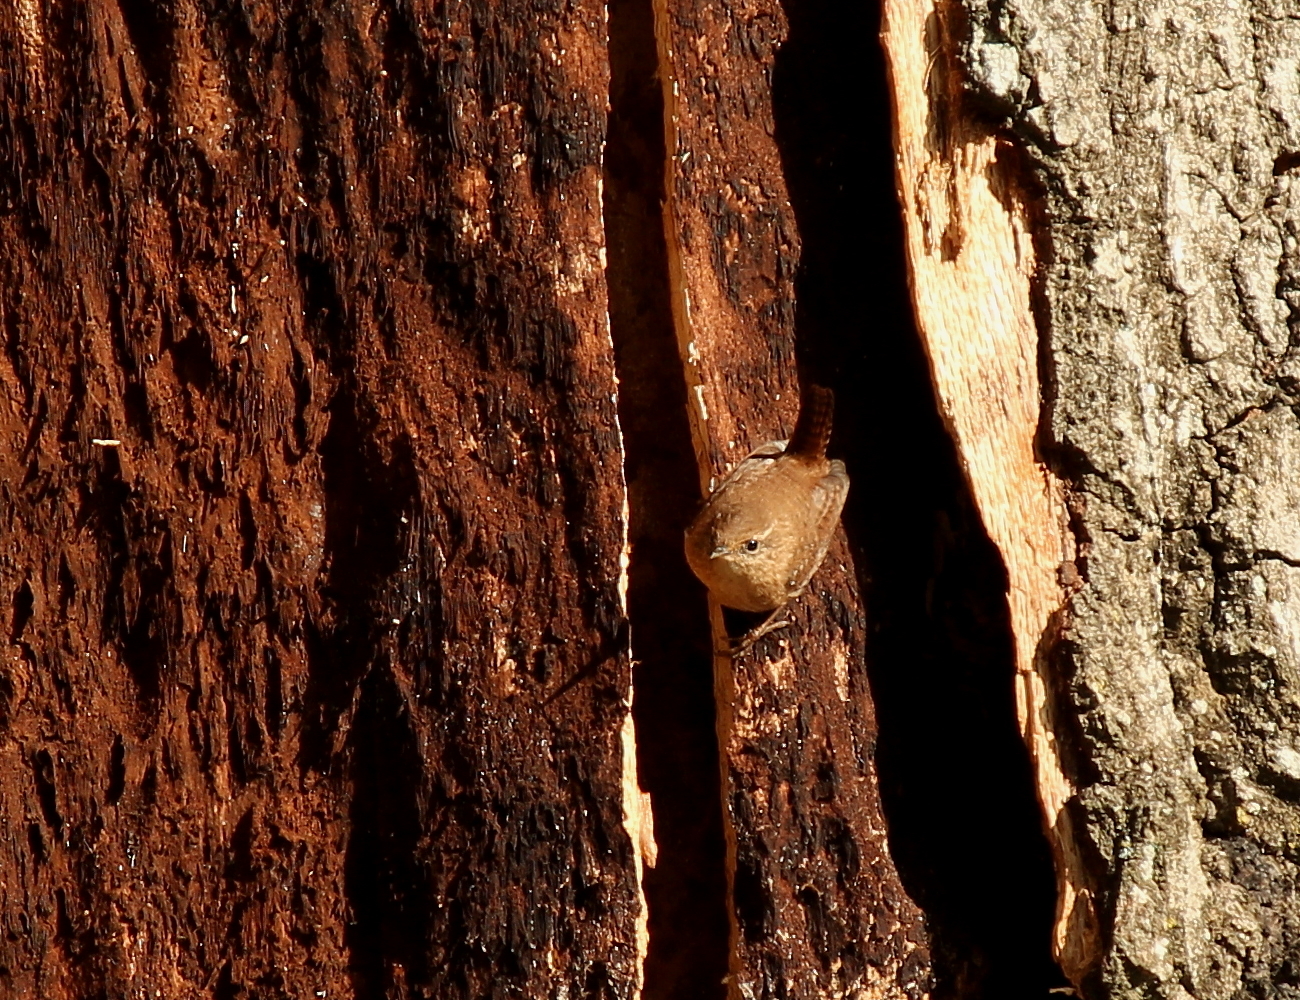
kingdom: Animalia
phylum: Chordata
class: Aves
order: Passeriformes
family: Troglodytidae
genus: Troglodytes
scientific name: Troglodytes hiemalis
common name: Winter wren
